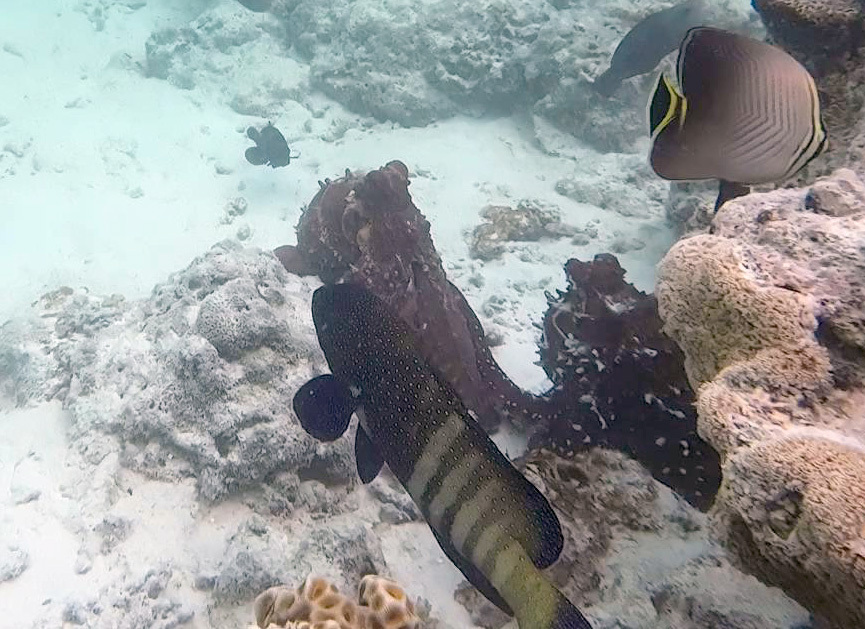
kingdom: Animalia
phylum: Mollusca
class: Cephalopoda
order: Octopoda
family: Octopodidae
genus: Octopus
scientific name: Octopus cyanea
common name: Cyane's octopus
